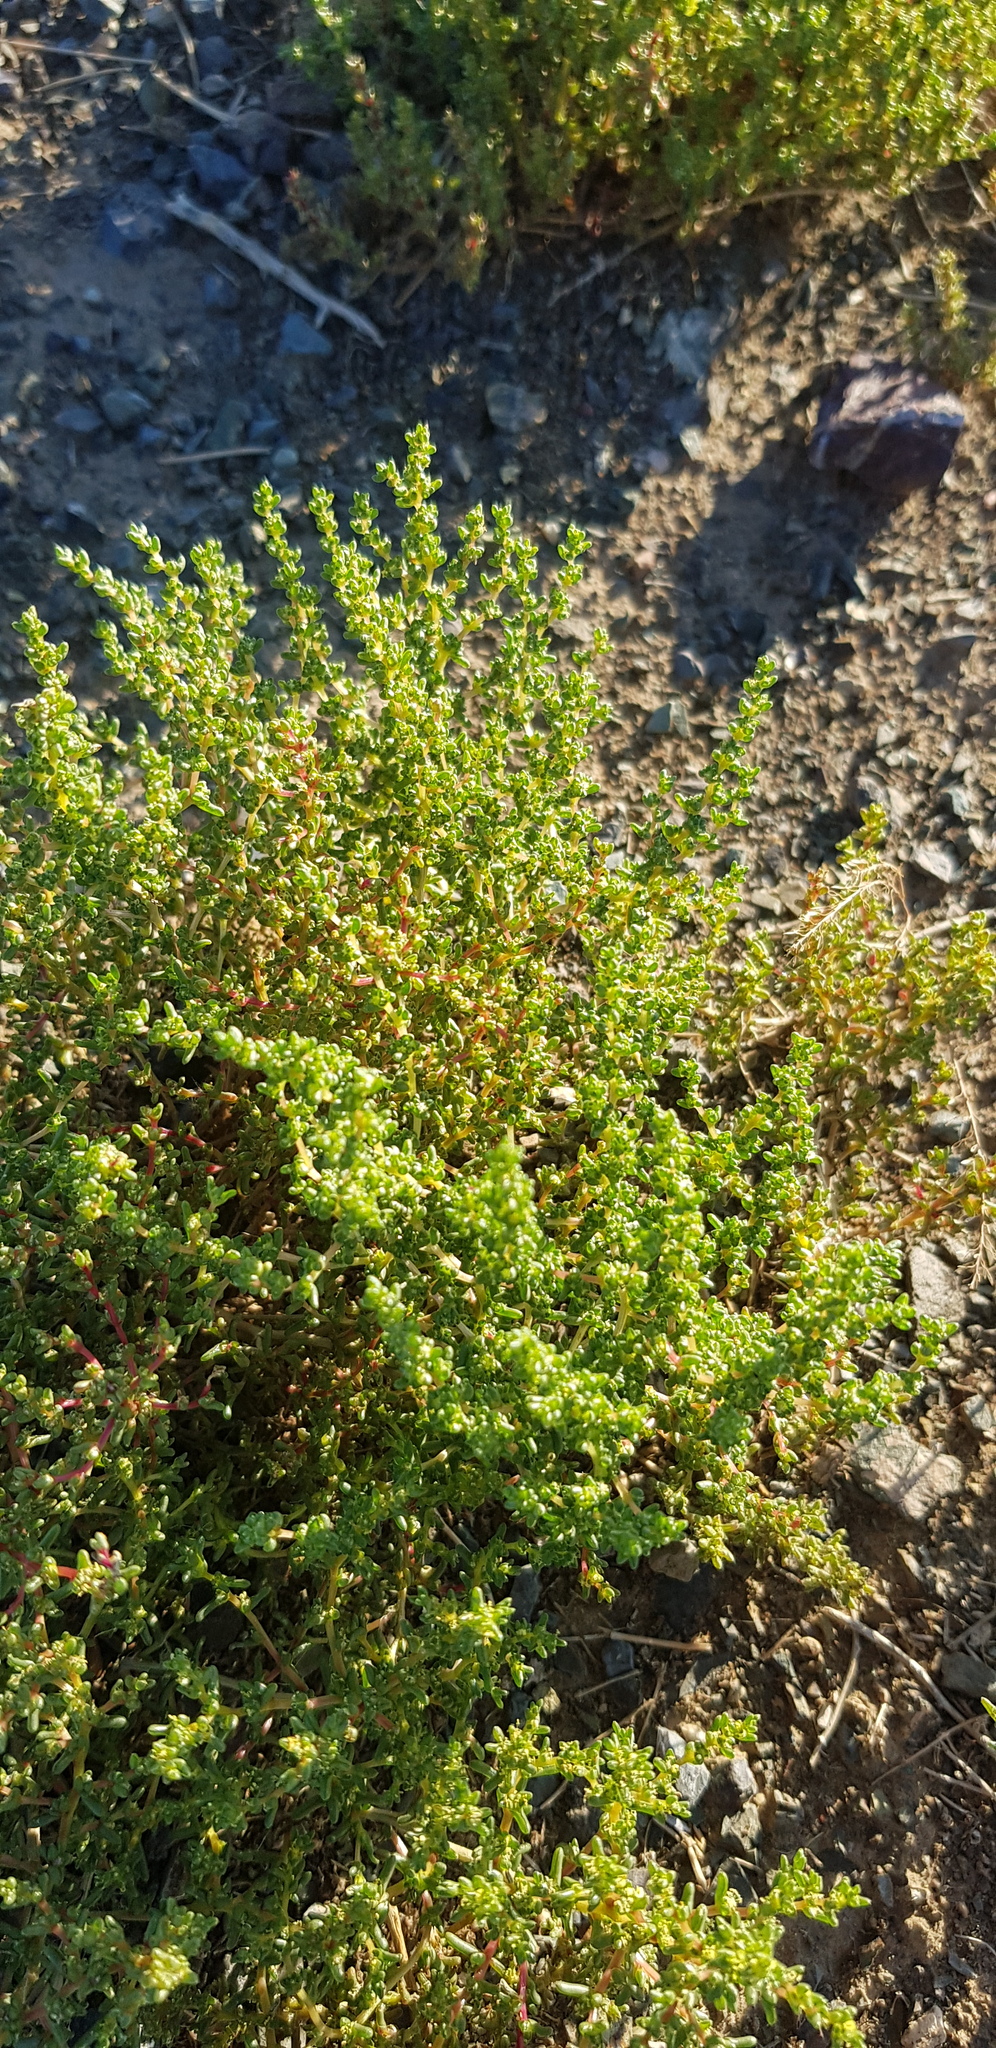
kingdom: Plantae
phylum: Tracheophyta
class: Magnoliopsida
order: Caryophyllales
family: Amaranthaceae
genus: Halogeton
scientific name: Halogeton arachnoides
